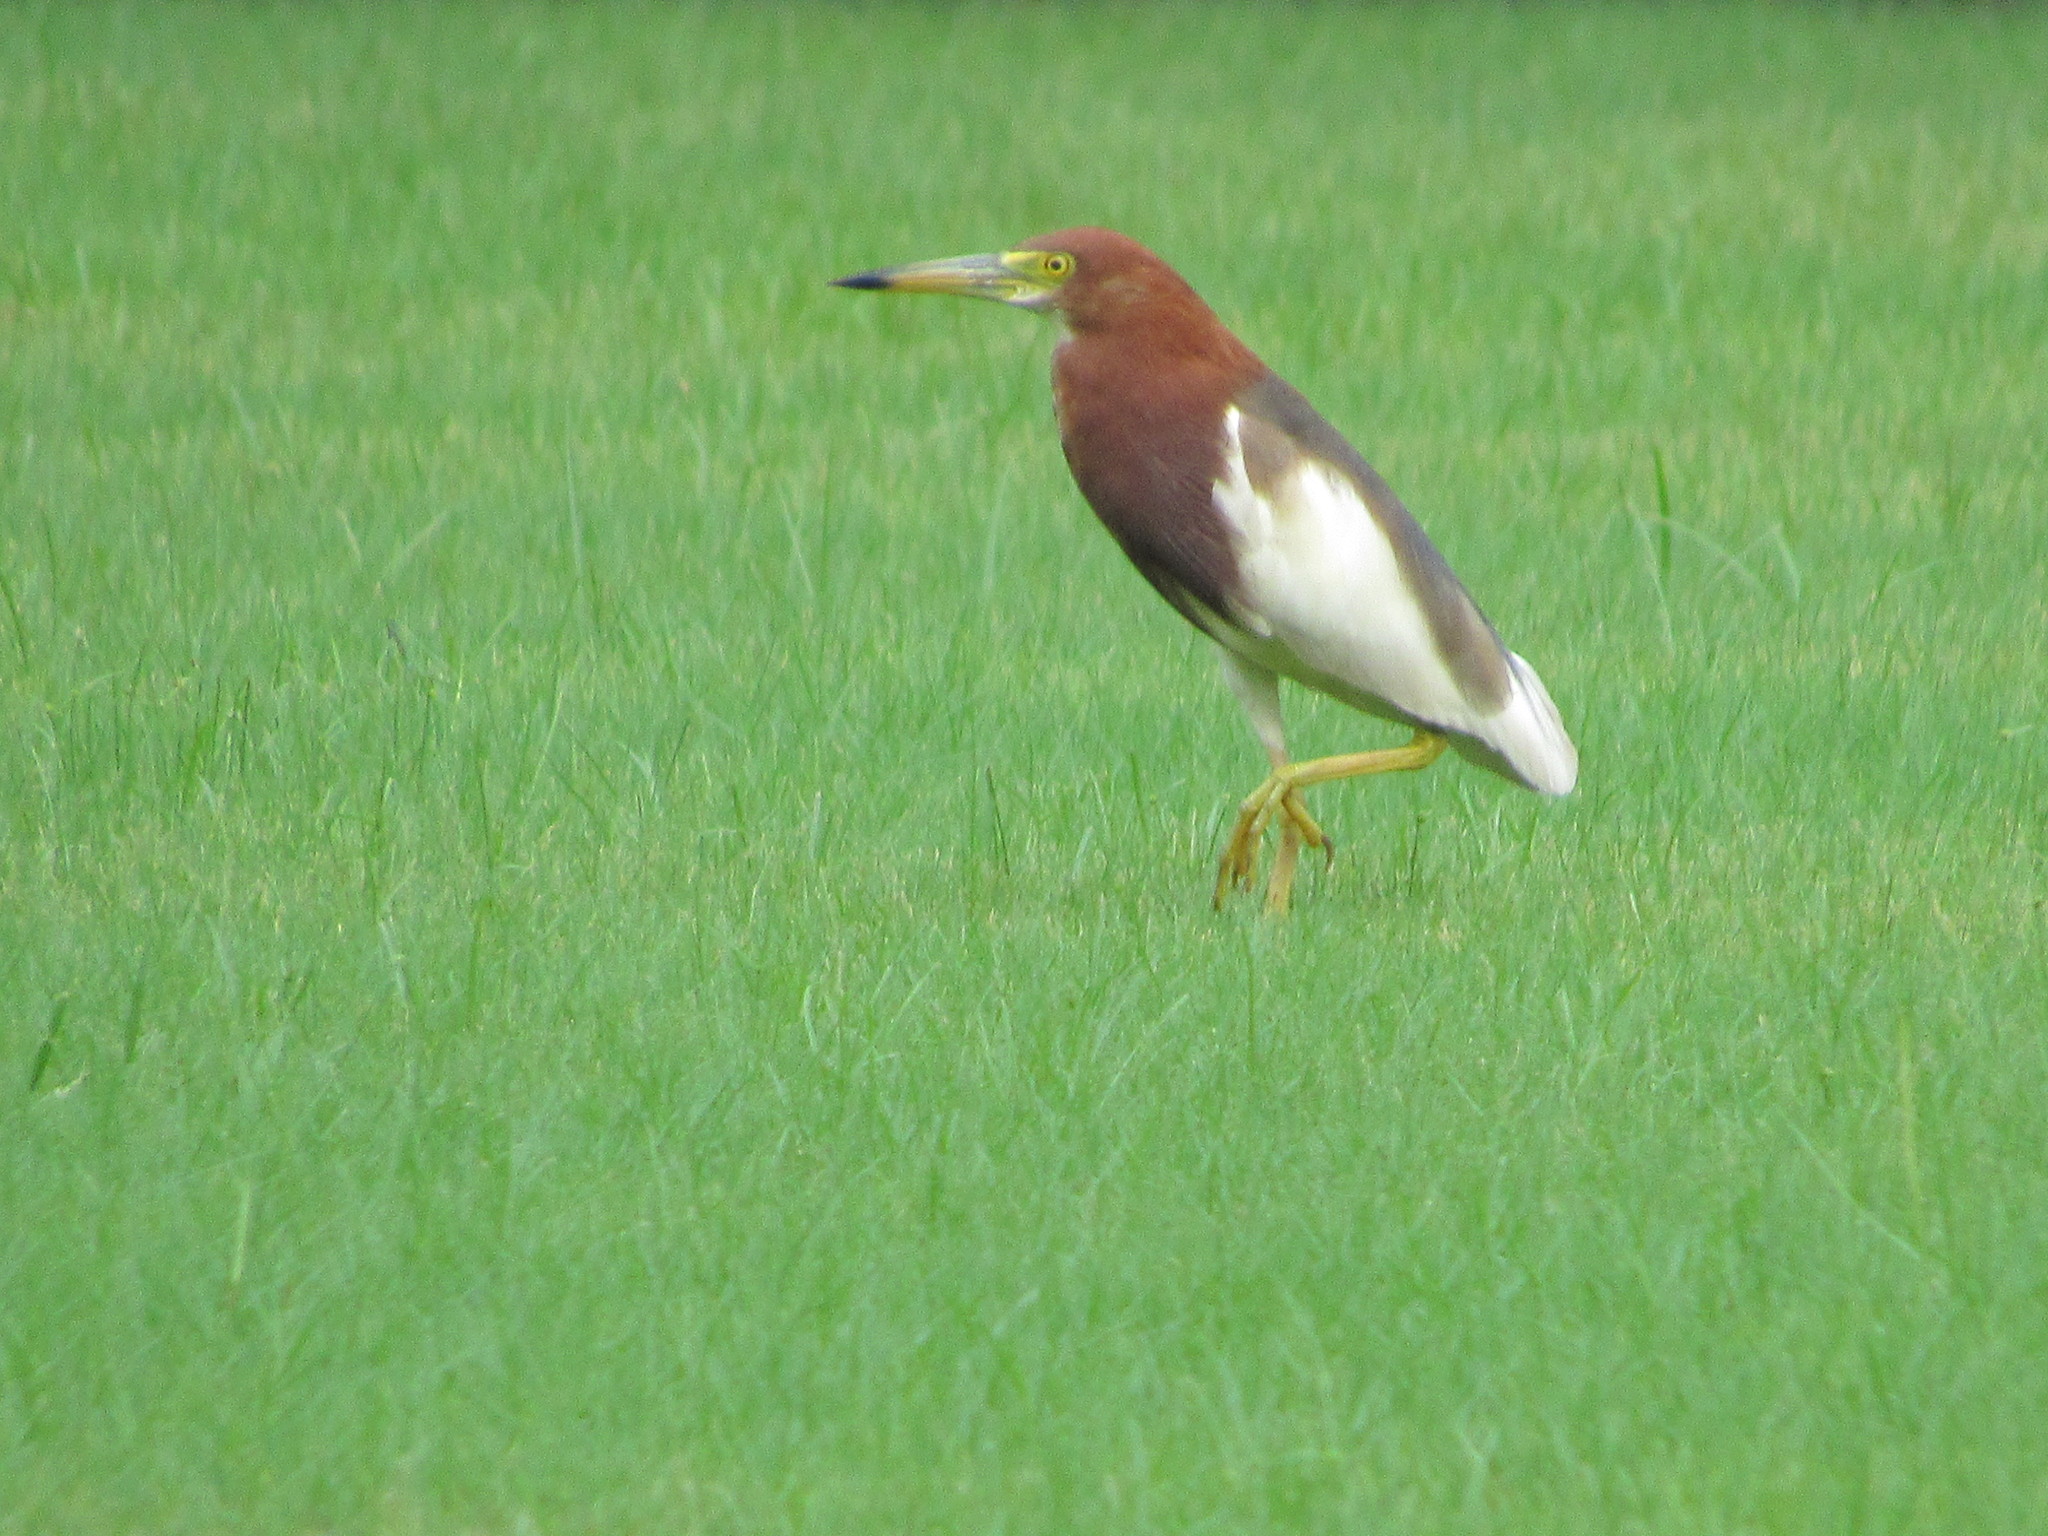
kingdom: Animalia
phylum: Chordata
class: Aves
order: Pelecaniformes
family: Ardeidae
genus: Ardeola
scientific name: Ardeola bacchus
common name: Chinese pond heron
